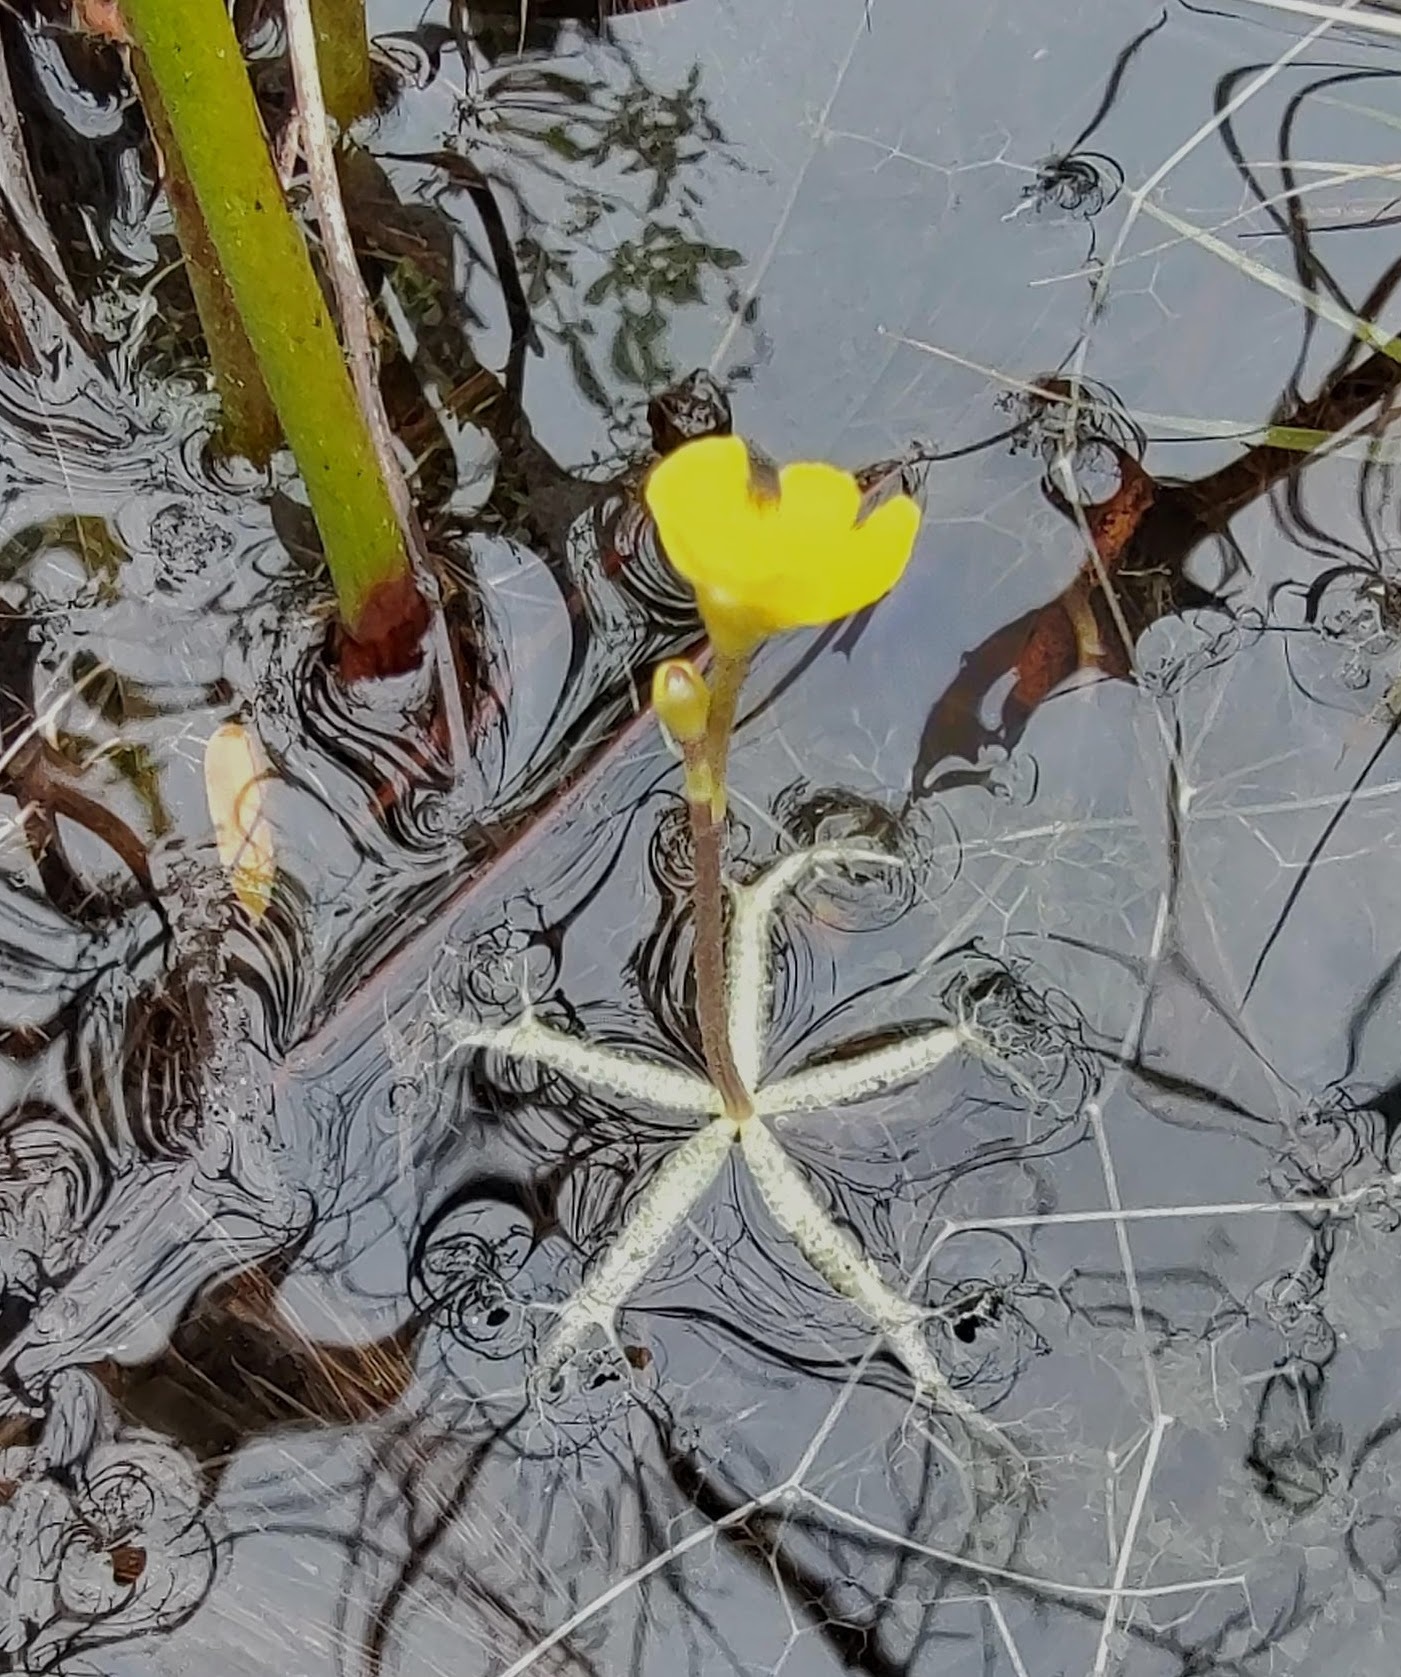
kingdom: Plantae
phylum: Tracheophyta
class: Magnoliopsida
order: Lamiales
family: Lentibulariaceae
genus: Utricularia
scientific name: Utricularia radiata
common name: Floating bladderwort
